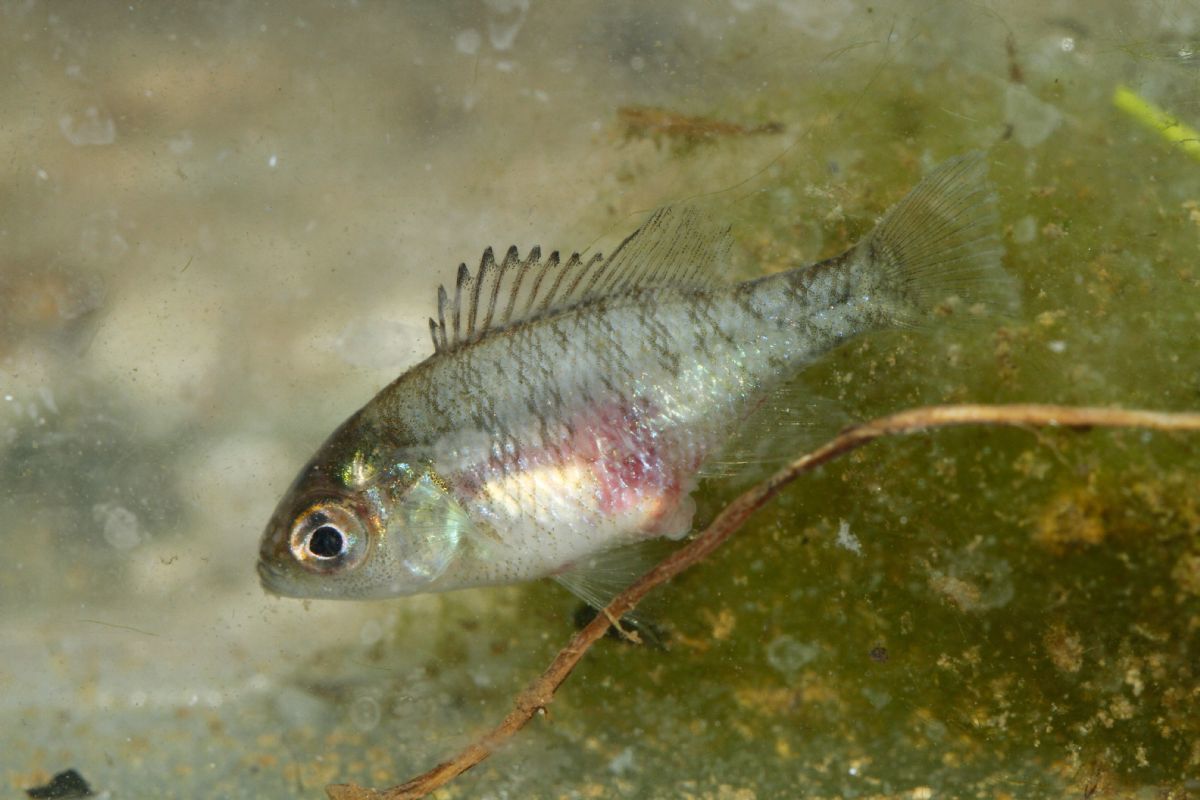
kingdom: Animalia
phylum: Chordata
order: Perciformes
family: Centrarchidae
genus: Lepomis
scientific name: Lepomis gibbosus
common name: Pumpkinseed
